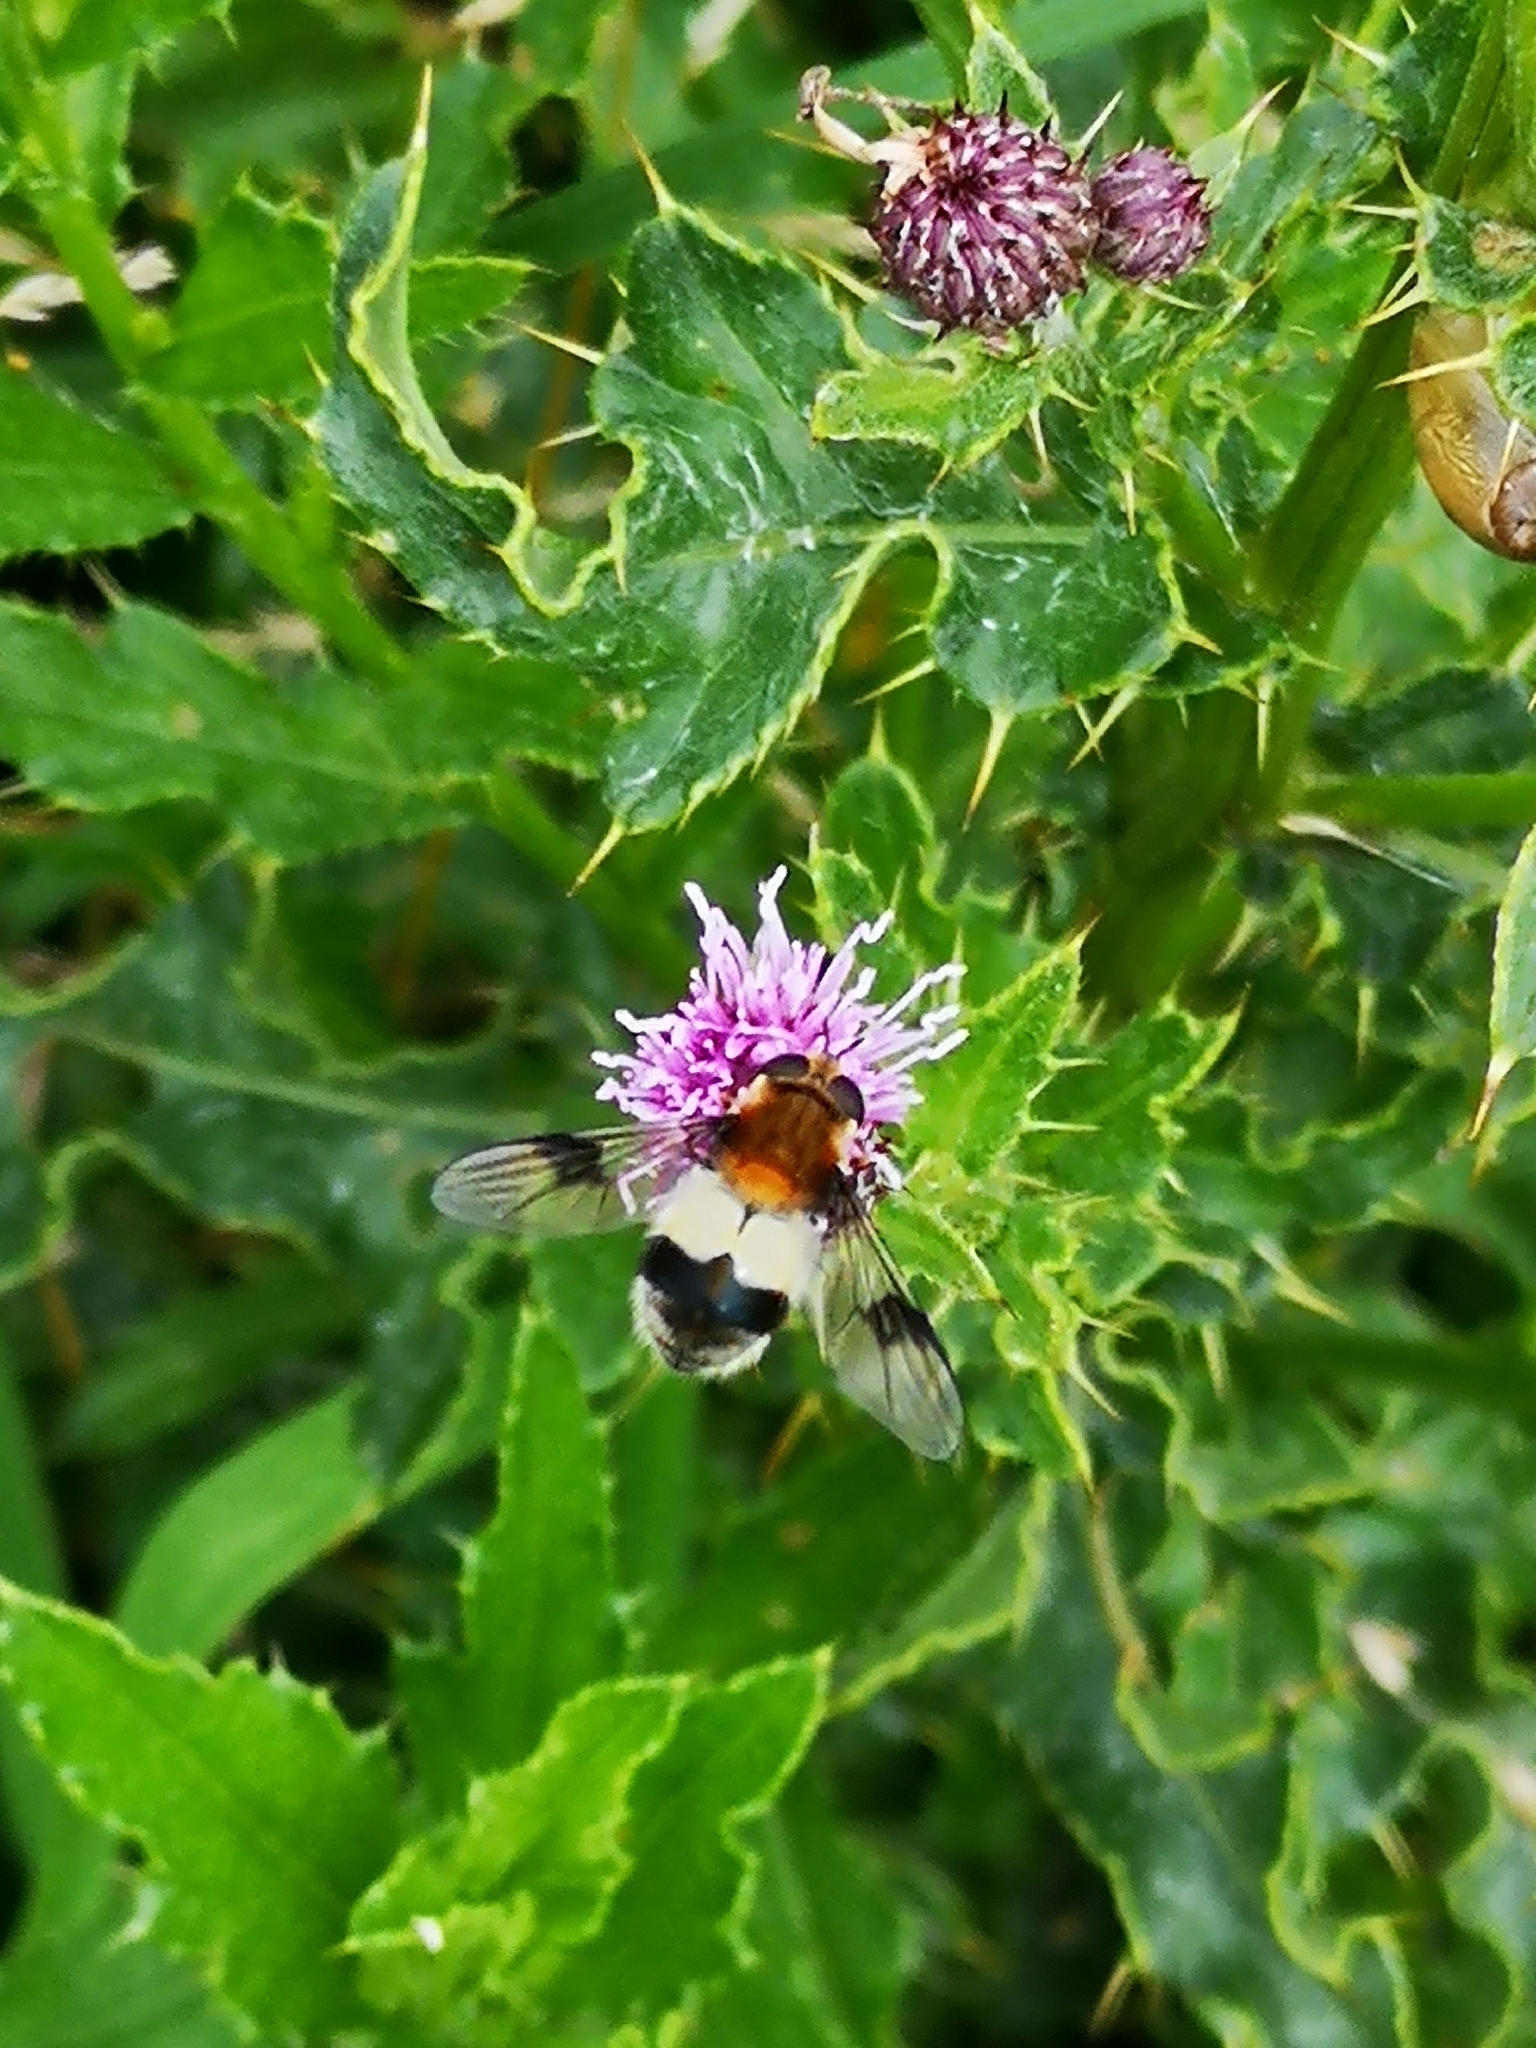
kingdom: Animalia
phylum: Arthropoda
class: Insecta
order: Diptera
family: Syrphidae
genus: Leucozona
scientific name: Leucozona lucorum
